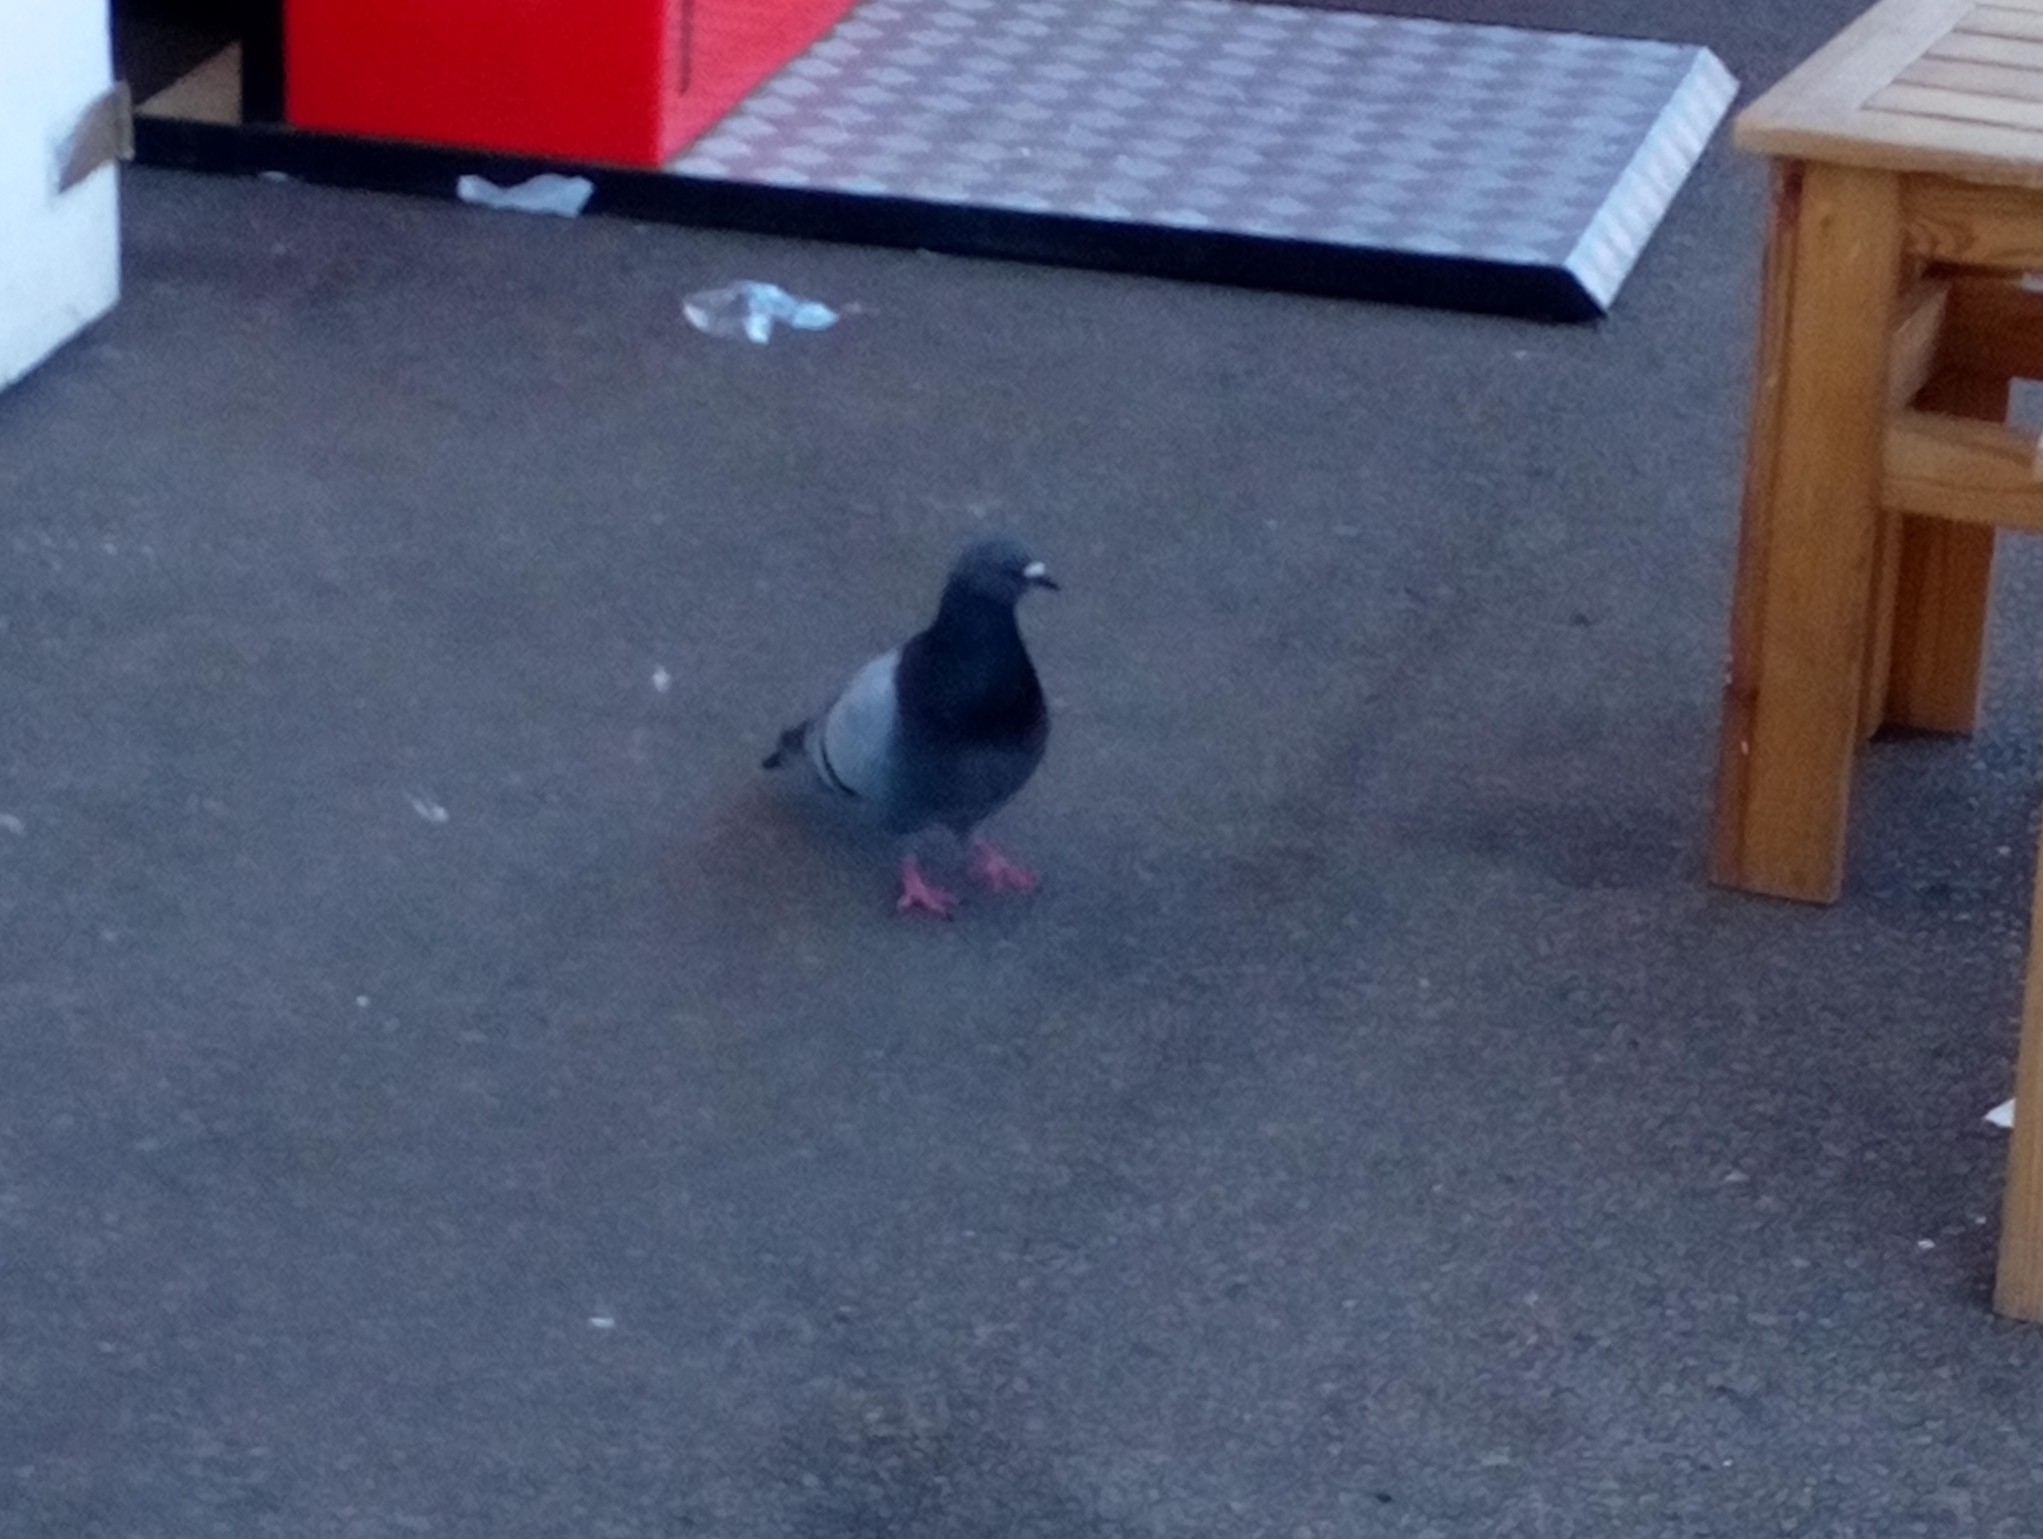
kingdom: Animalia
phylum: Chordata
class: Aves
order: Columbiformes
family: Columbidae
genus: Columba
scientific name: Columba livia
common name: Rock pigeon
